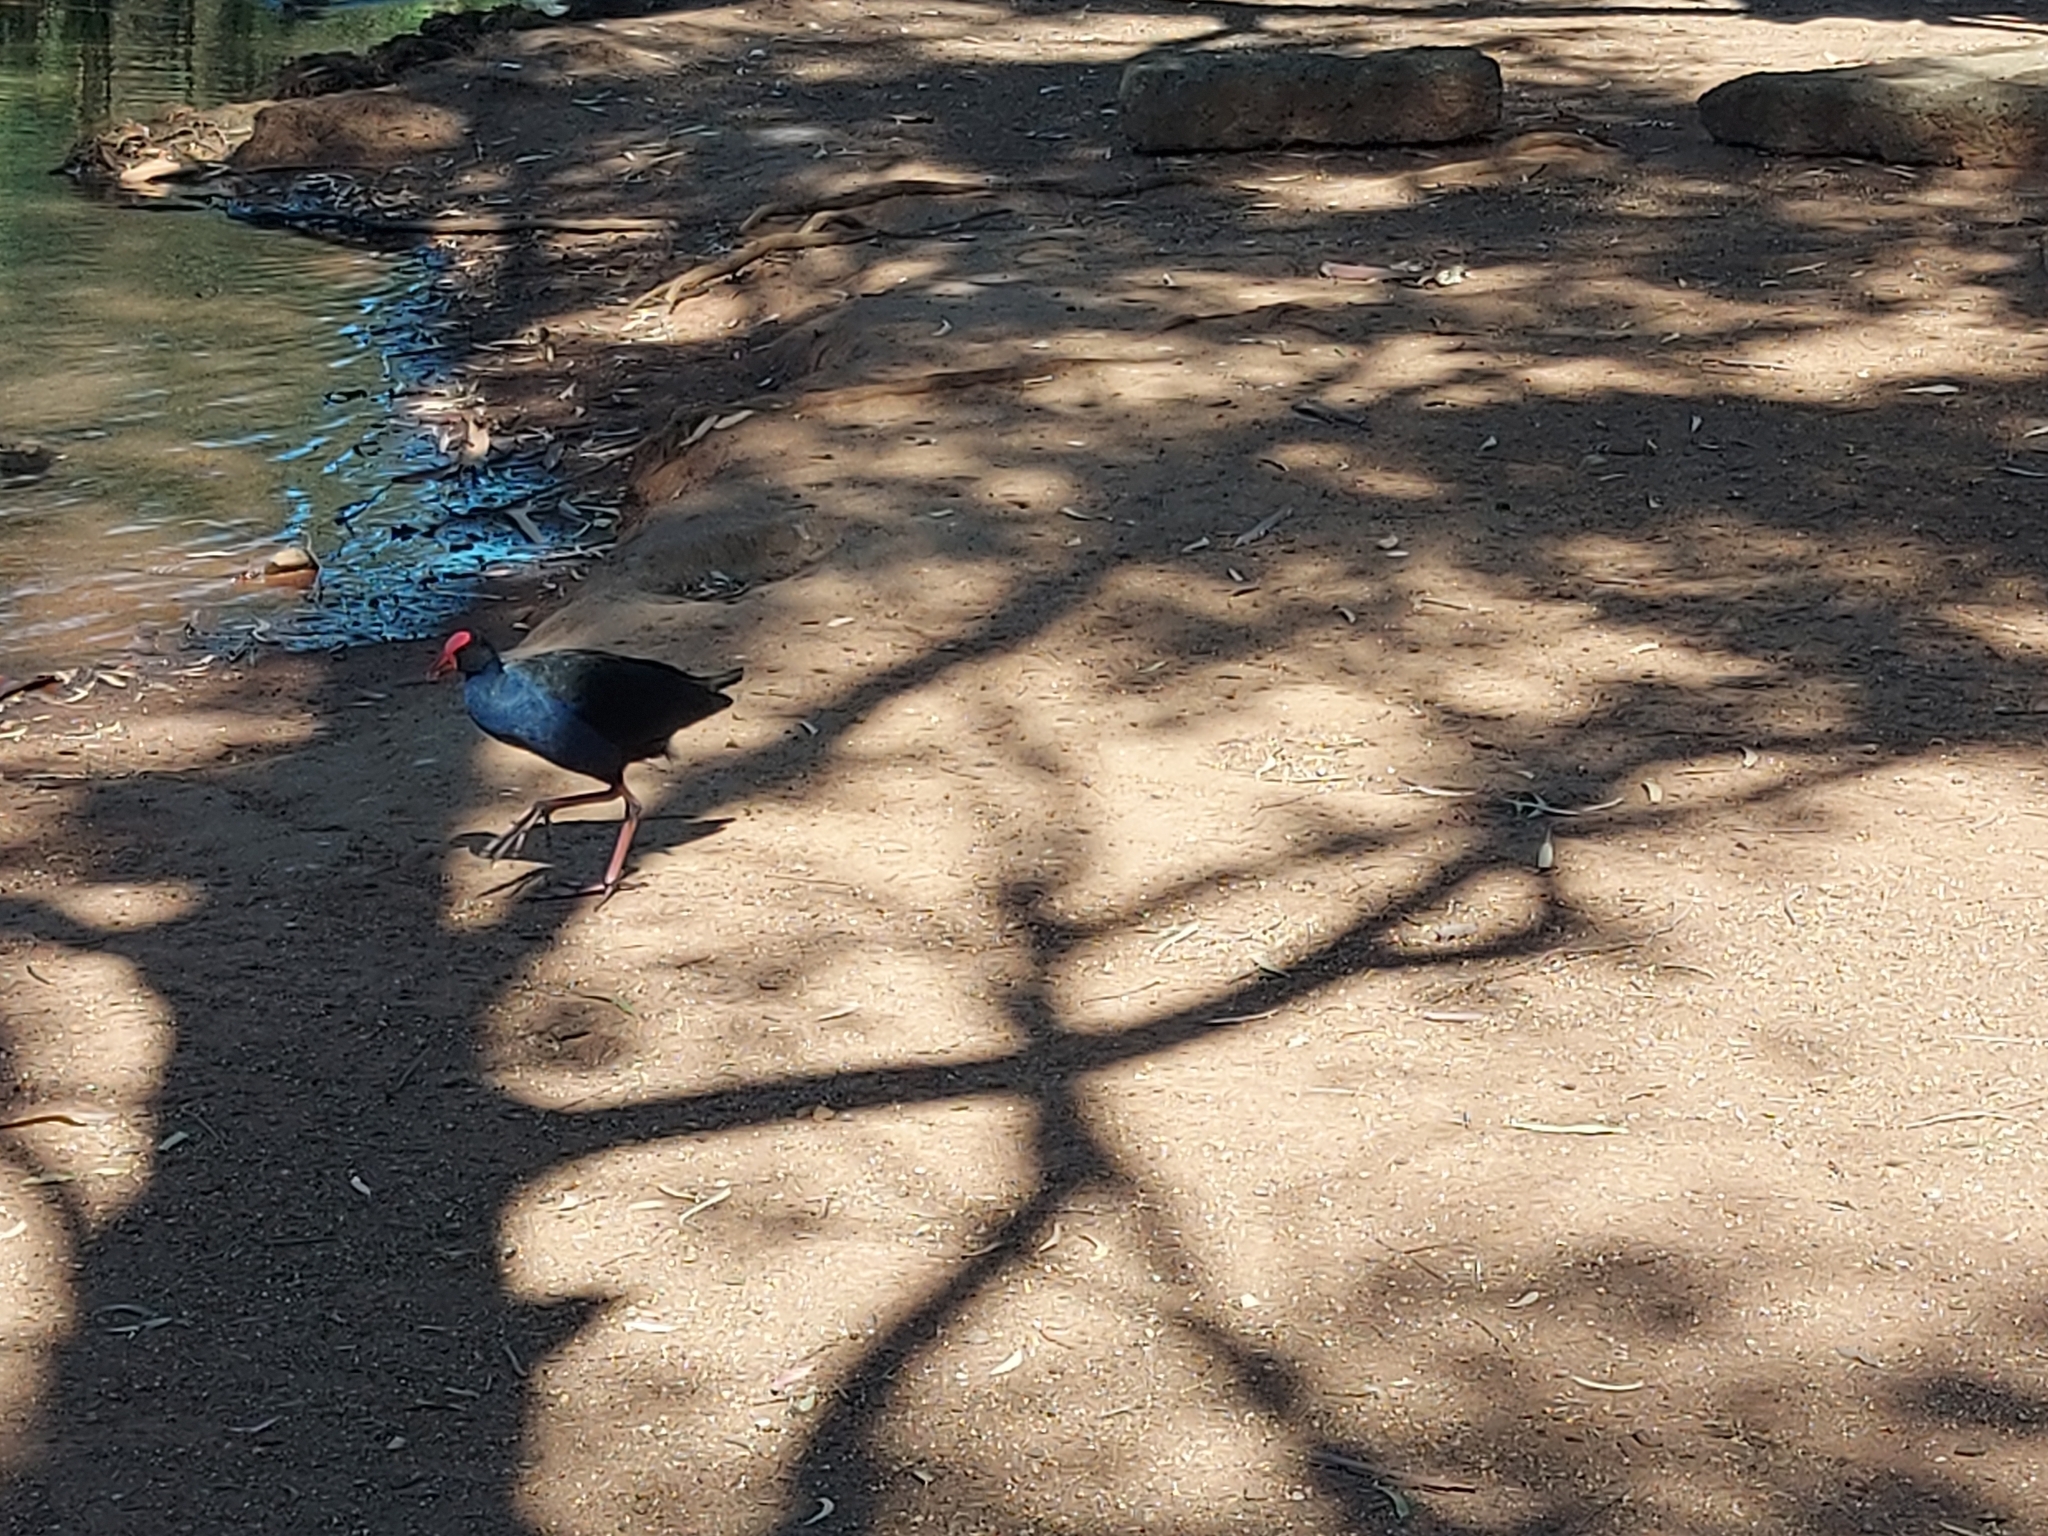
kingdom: Animalia
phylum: Chordata
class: Aves
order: Gruiformes
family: Rallidae
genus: Porphyrio
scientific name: Porphyrio melanotus
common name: Australasian swamphen
